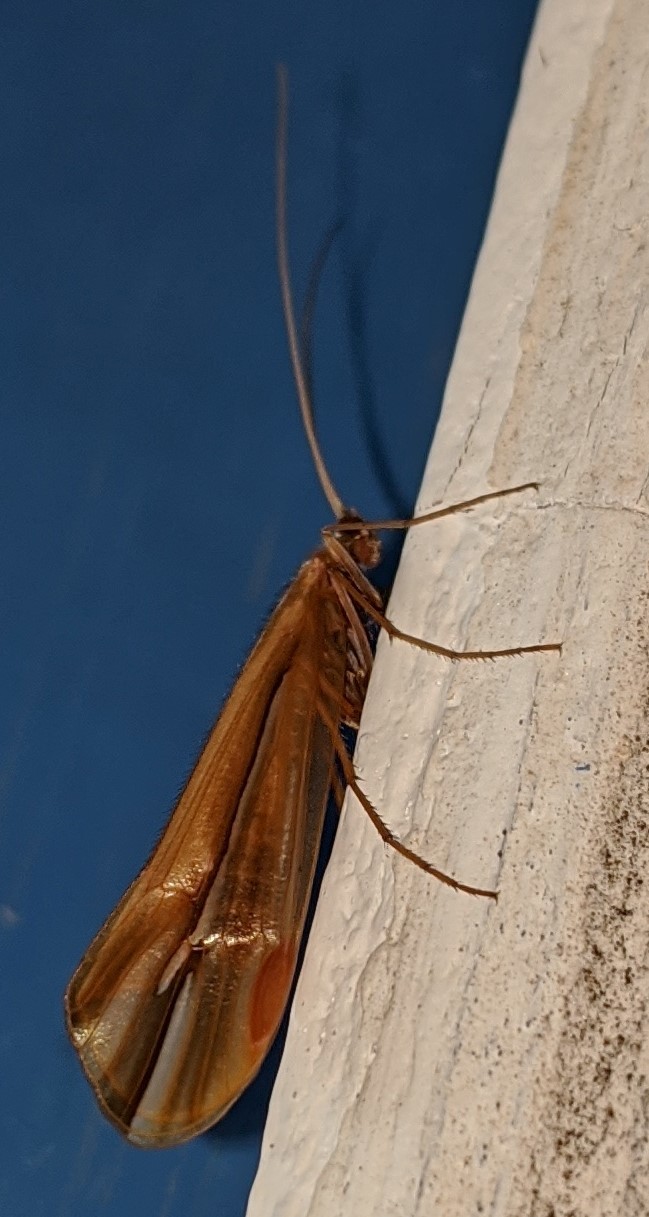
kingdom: Animalia
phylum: Arthropoda
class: Insecta
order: Trichoptera
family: Limnephilidae
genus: Psychoglypha
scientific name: Psychoglypha subborealis
